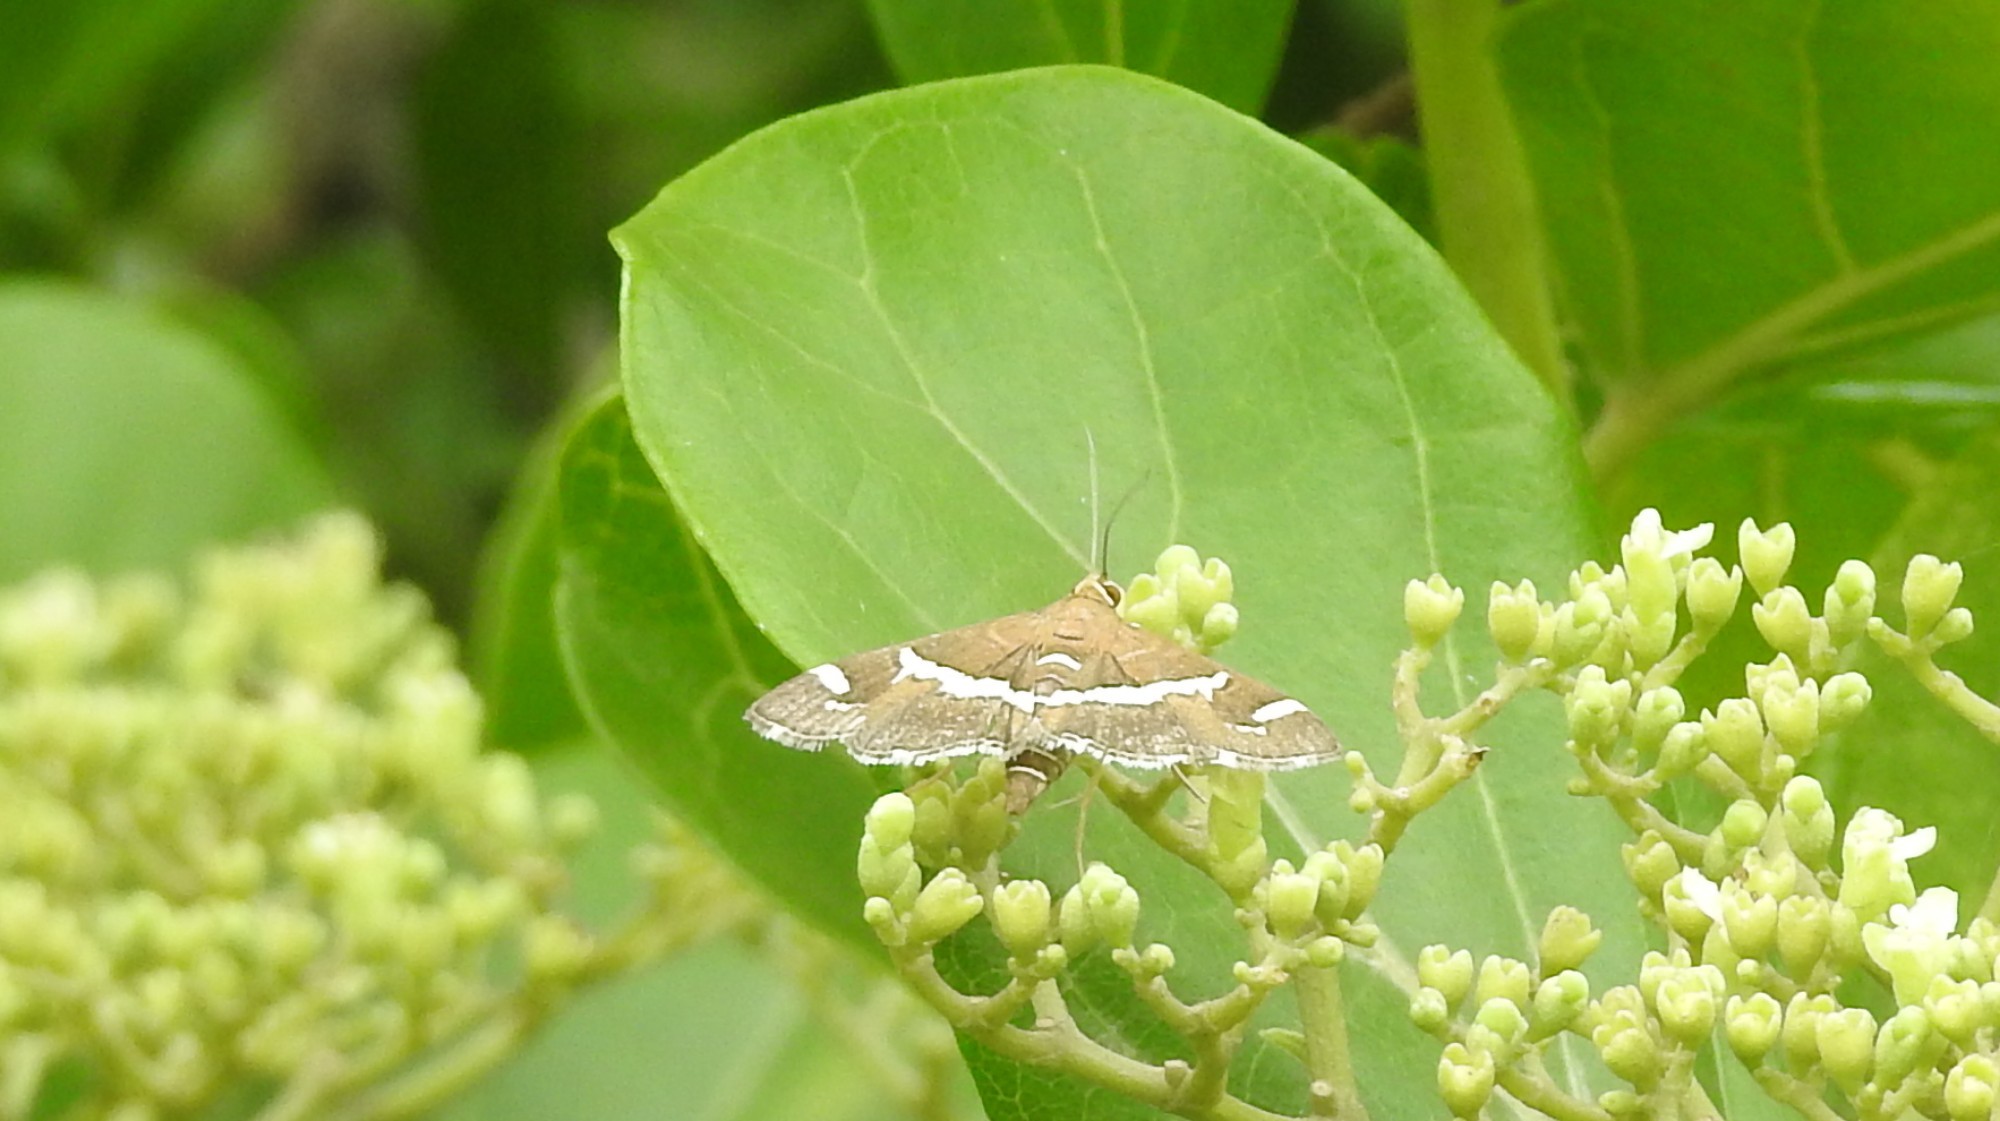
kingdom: Animalia
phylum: Arthropoda
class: Insecta
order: Lepidoptera
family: Crambidae
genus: Spoladea
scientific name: Spoladea recurvalis
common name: Beet webworm moth
